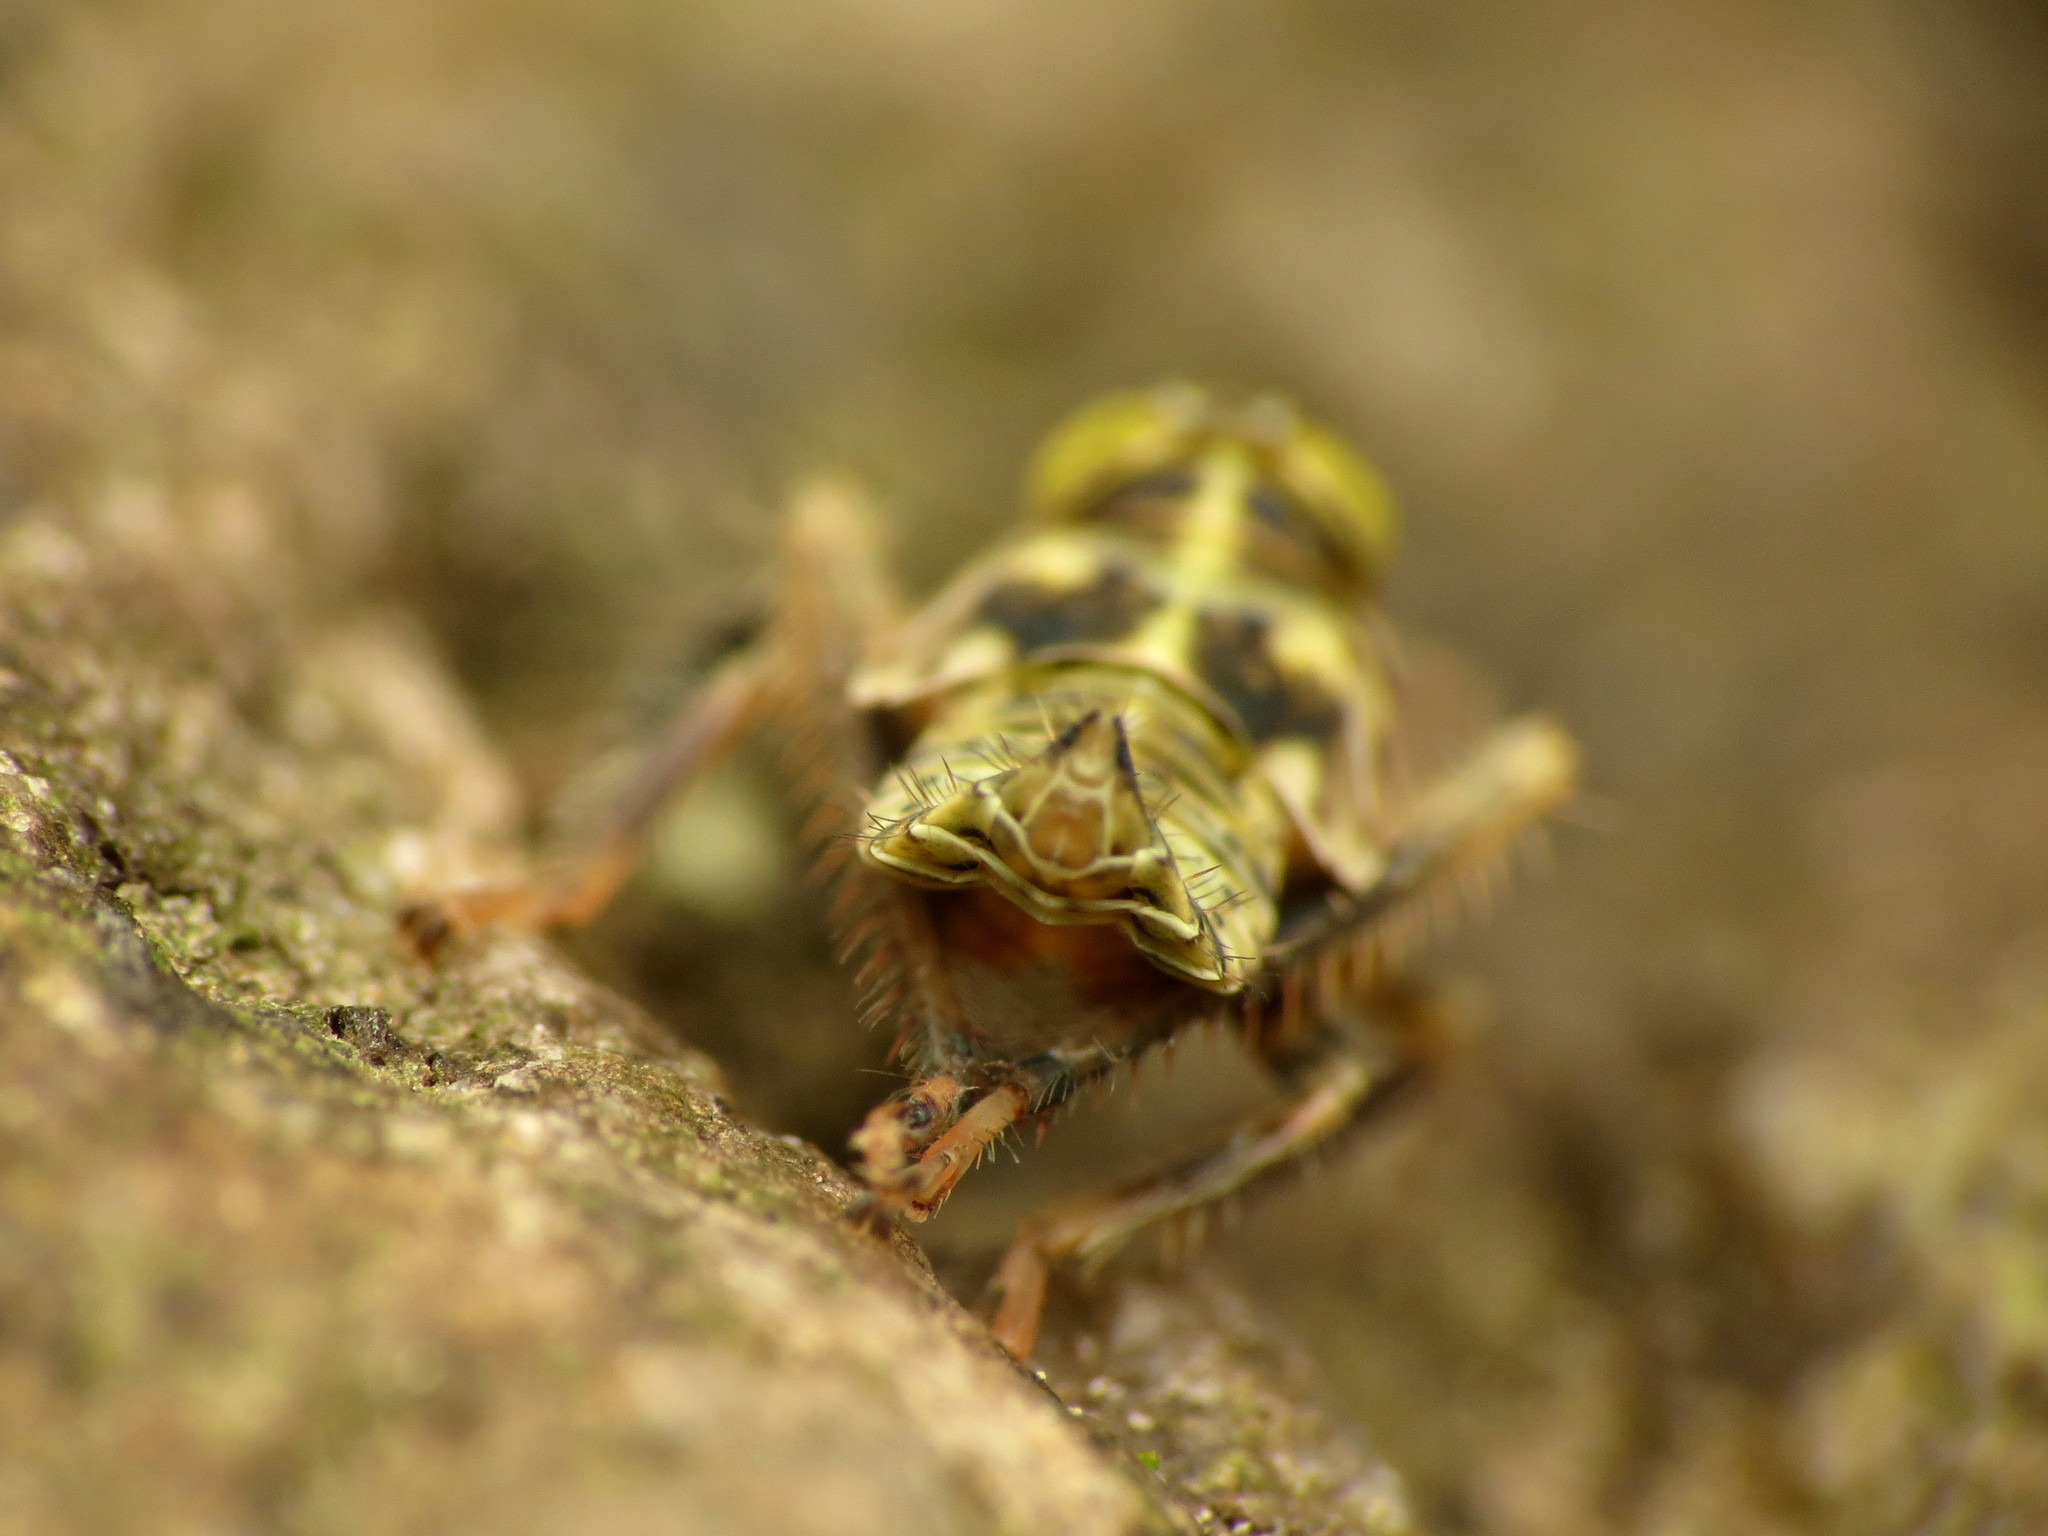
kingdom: Animalia
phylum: Arthropoda
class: Insecta
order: Hemiptera
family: Cicadellidae
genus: Jikradia
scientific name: Jikradia olitoria
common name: Coppery leafhopper
